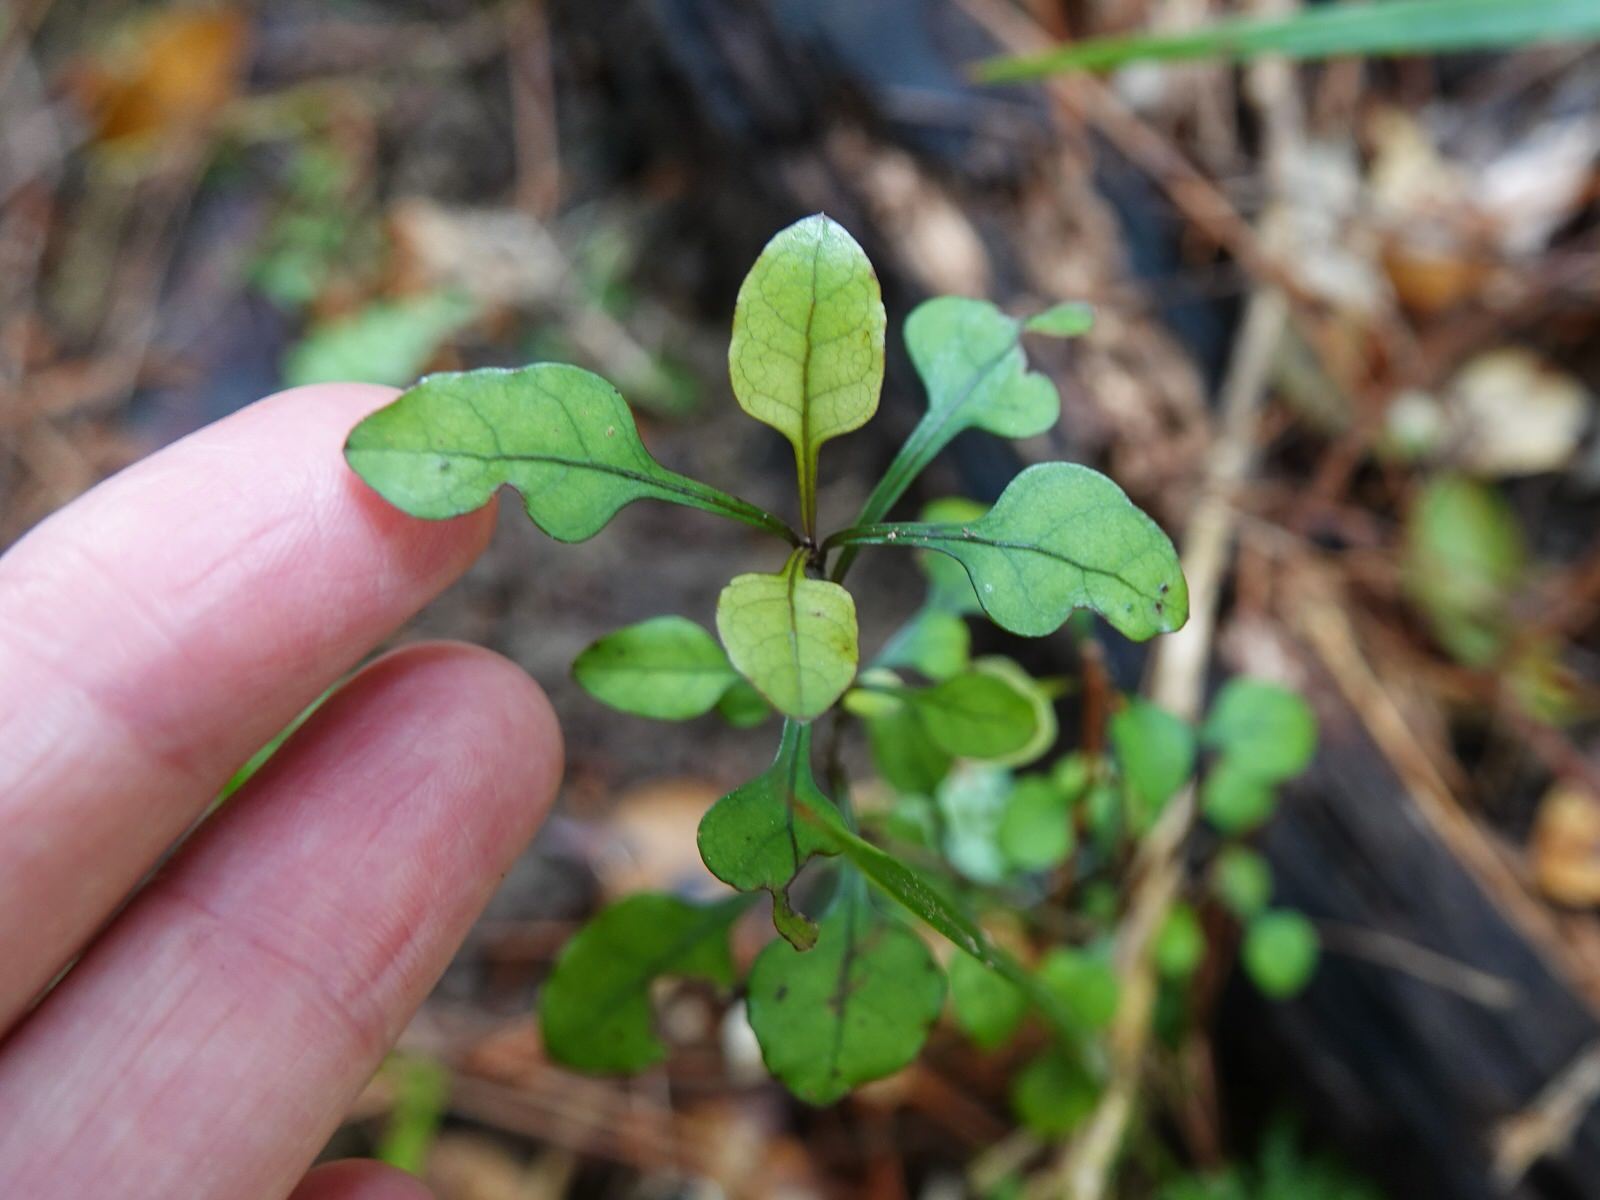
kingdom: Plantae
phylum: Tracheophyta
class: Magnoliopsida
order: Gentianales
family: Rubiaceae
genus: Coprosma
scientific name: Coprosma arborea
